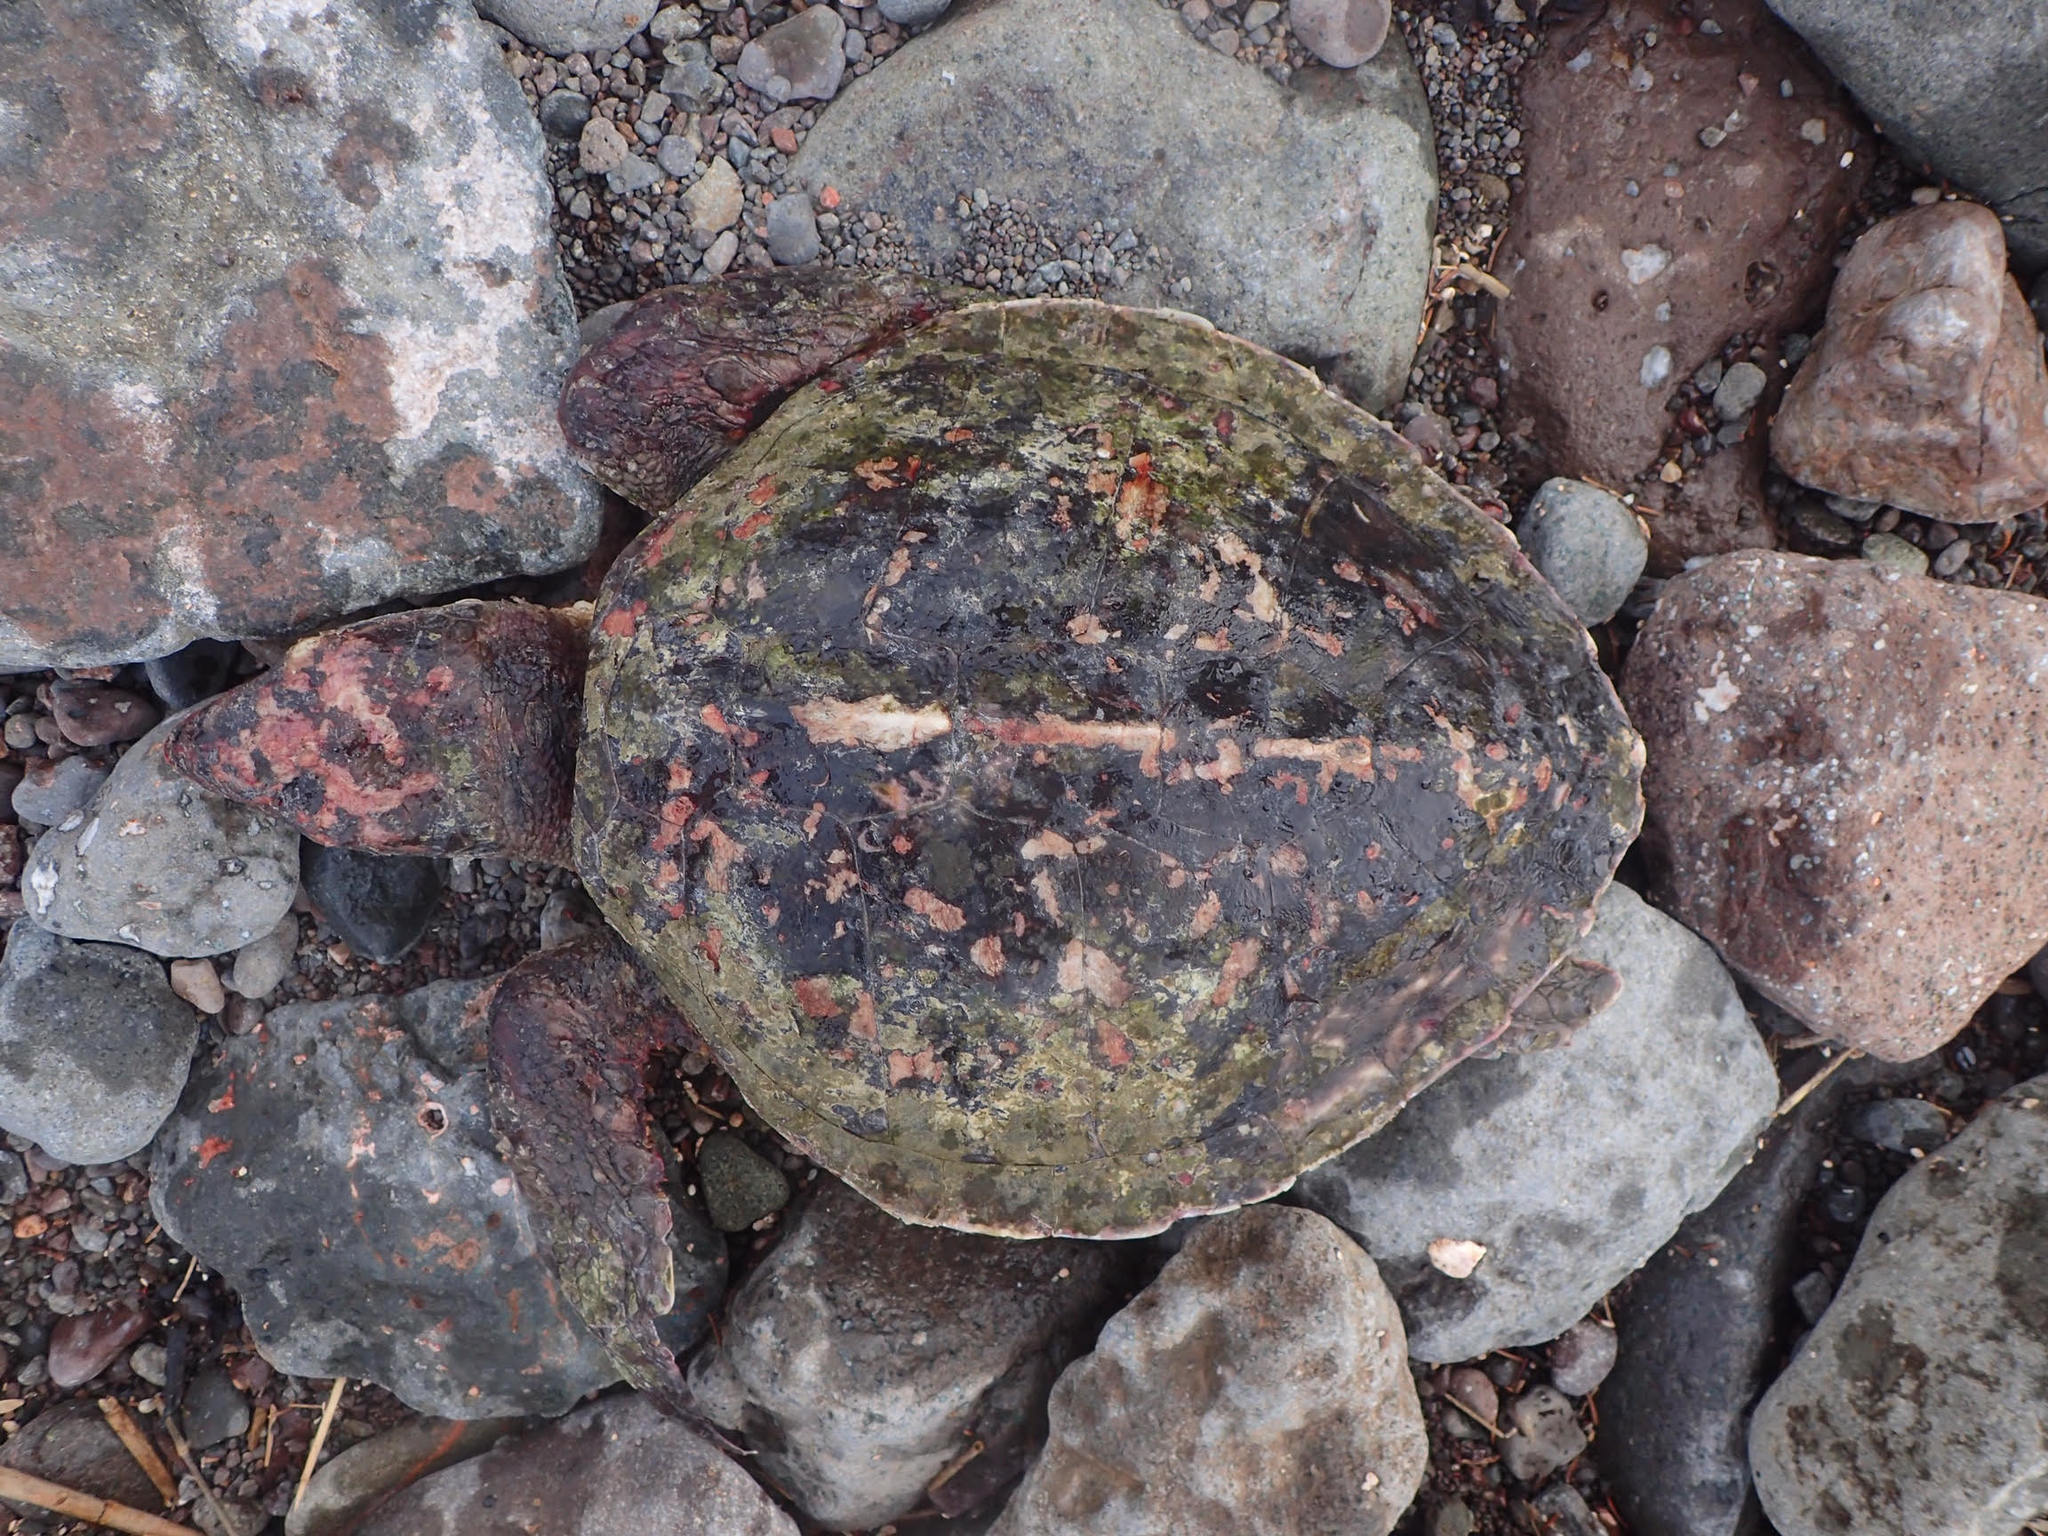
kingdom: Animalia
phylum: Chordata
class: Testudines
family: Cheloniidae
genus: Lepidochelys
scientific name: Lepidochelys kempii
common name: Kemp's ridley turtle
